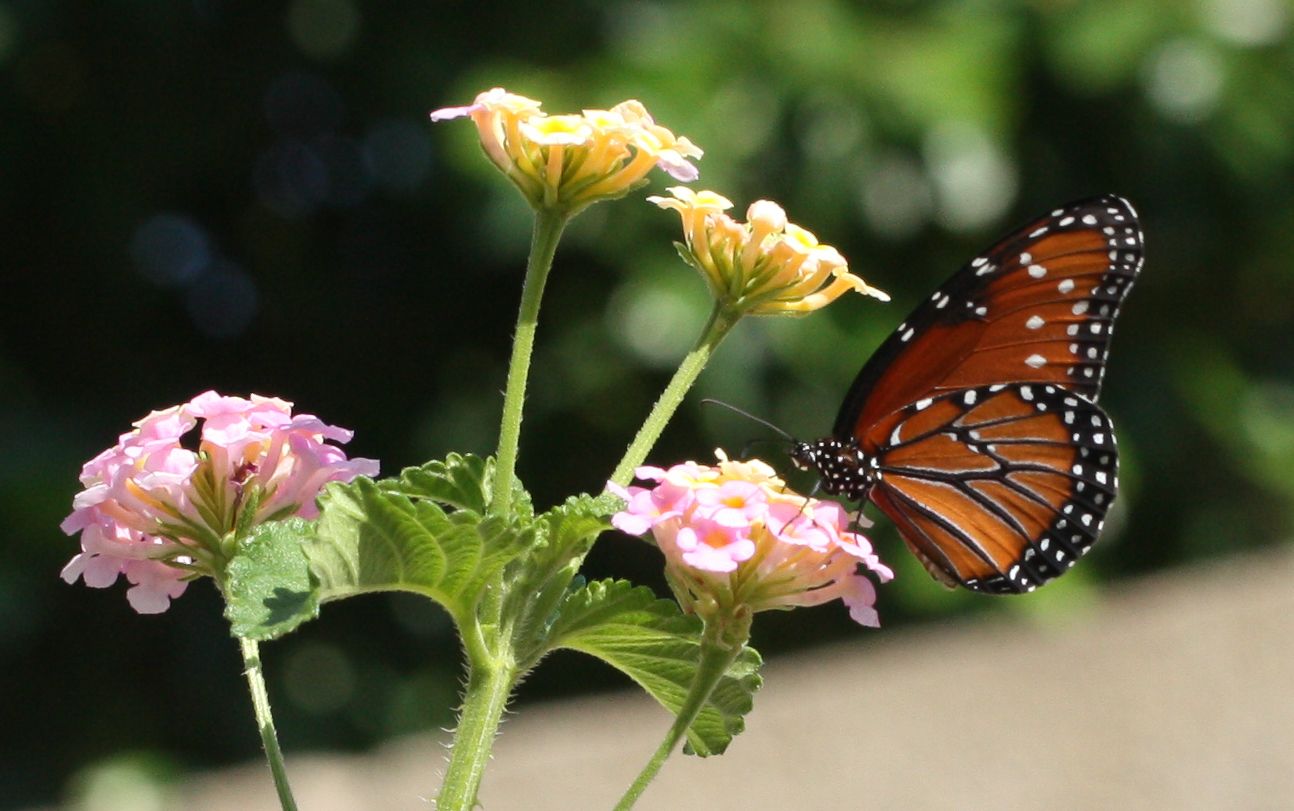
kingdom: Animalia
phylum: Arthropoda
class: Insecta
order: Lepidoptera
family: Nymphalidae
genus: Danaus
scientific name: Danaus gilippus
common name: Queen
